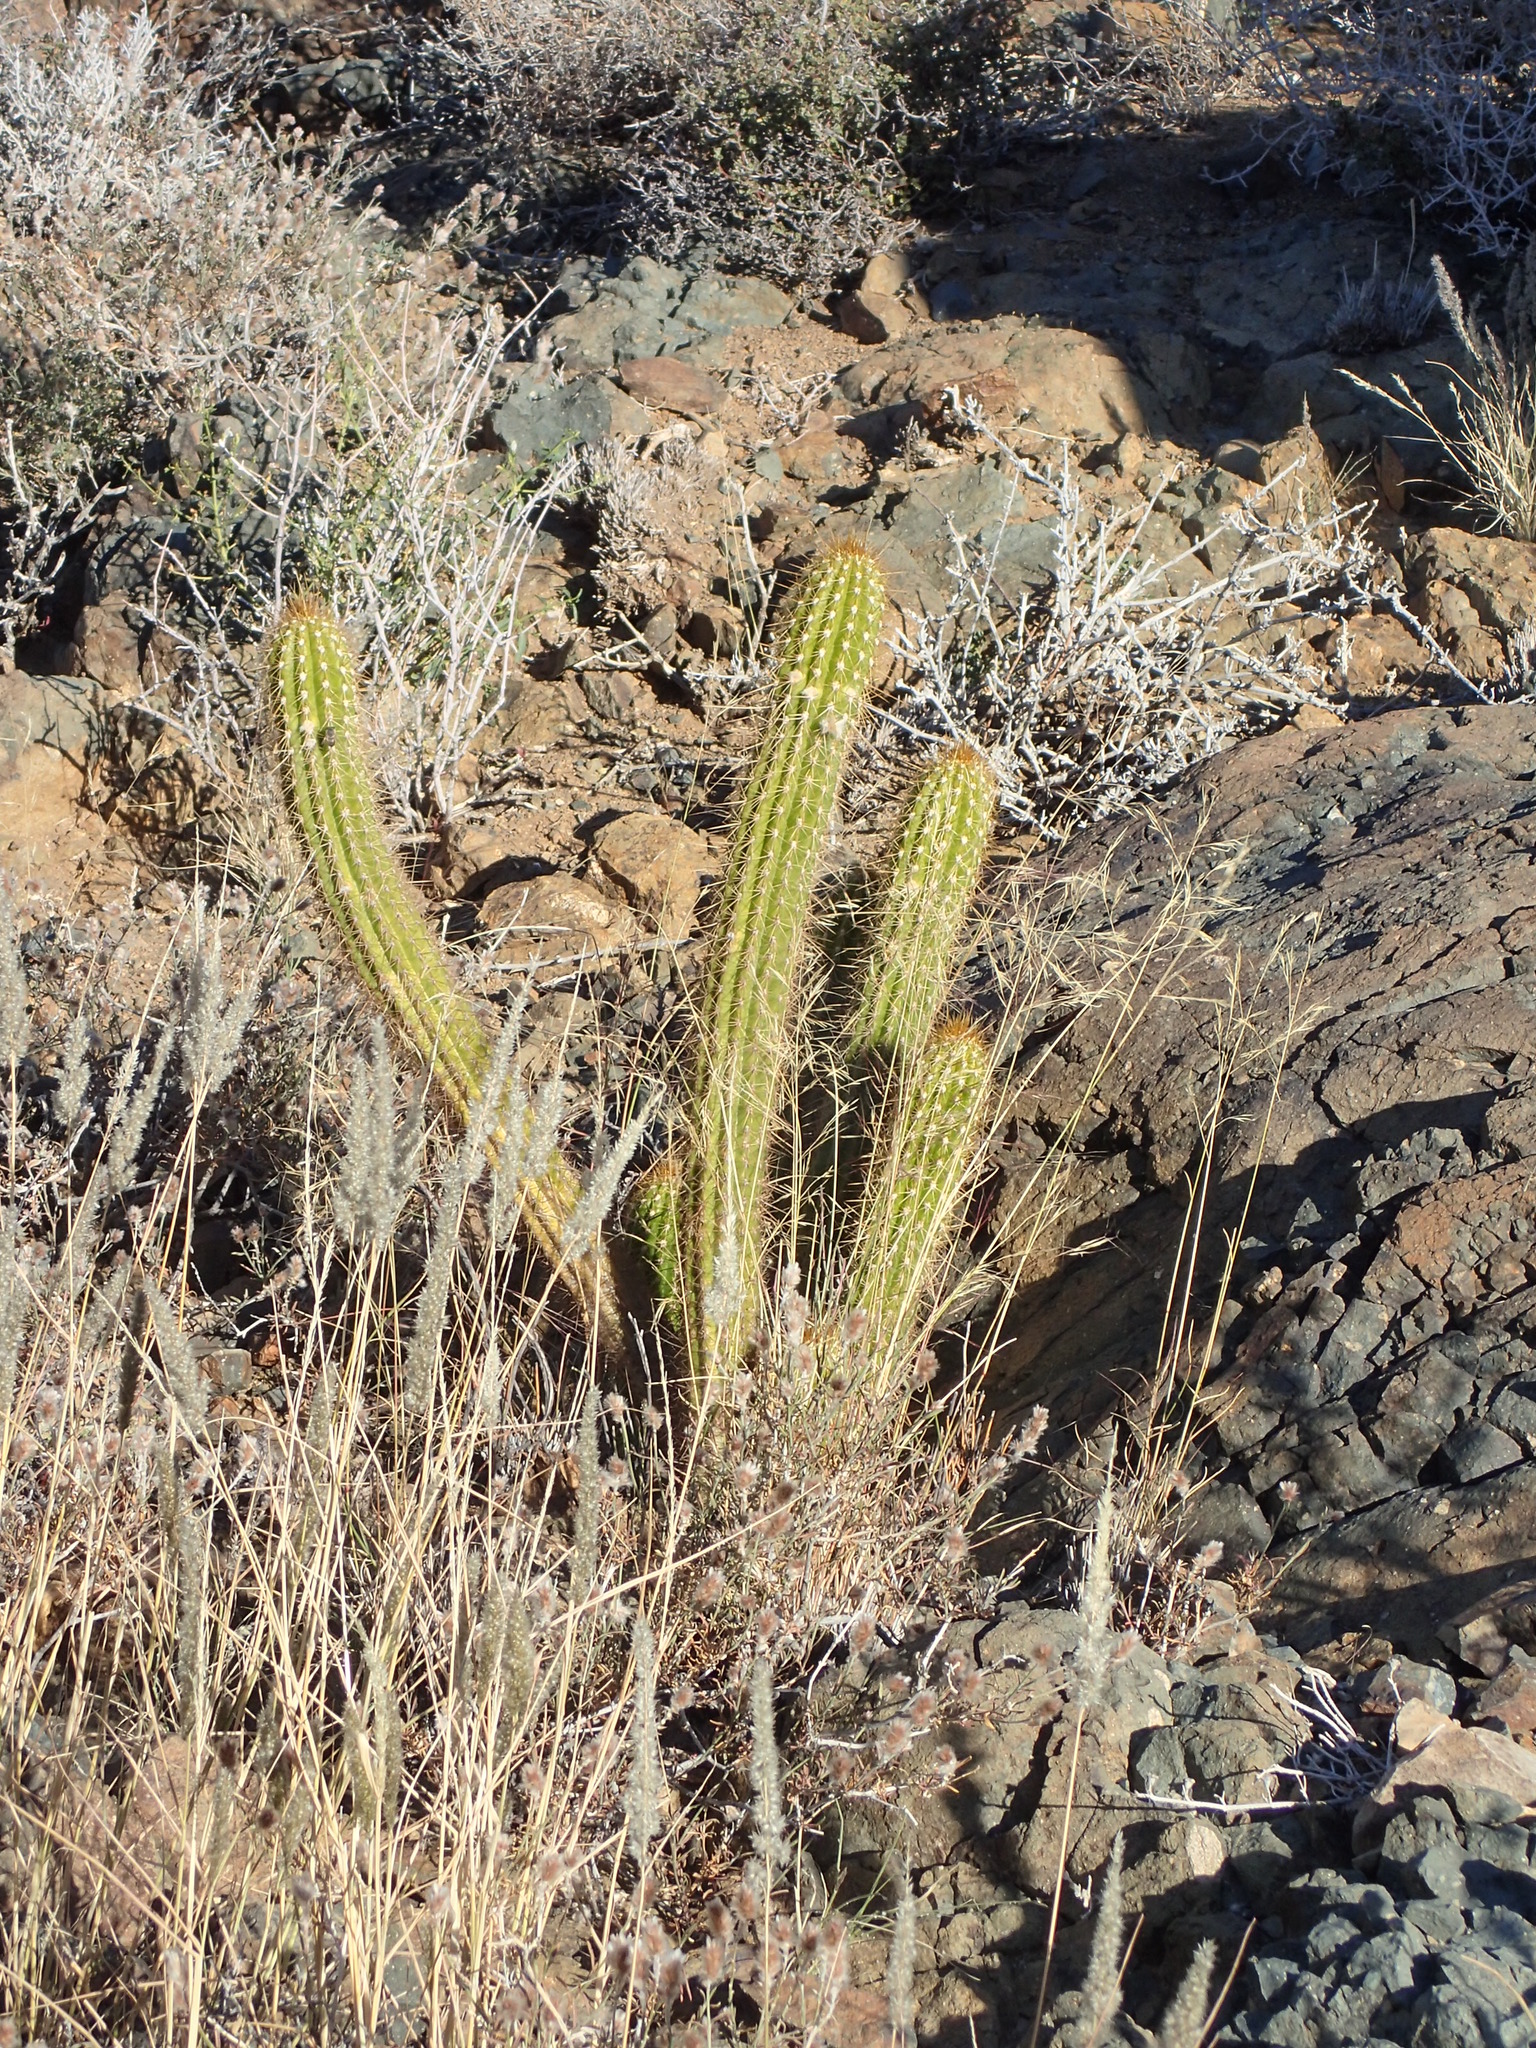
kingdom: Plantae
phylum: Tracheophyta
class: Magnoliopsida
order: Caryophyllales
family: Cactaceae
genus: Soehrensia
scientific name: Soehrensia spachiana
